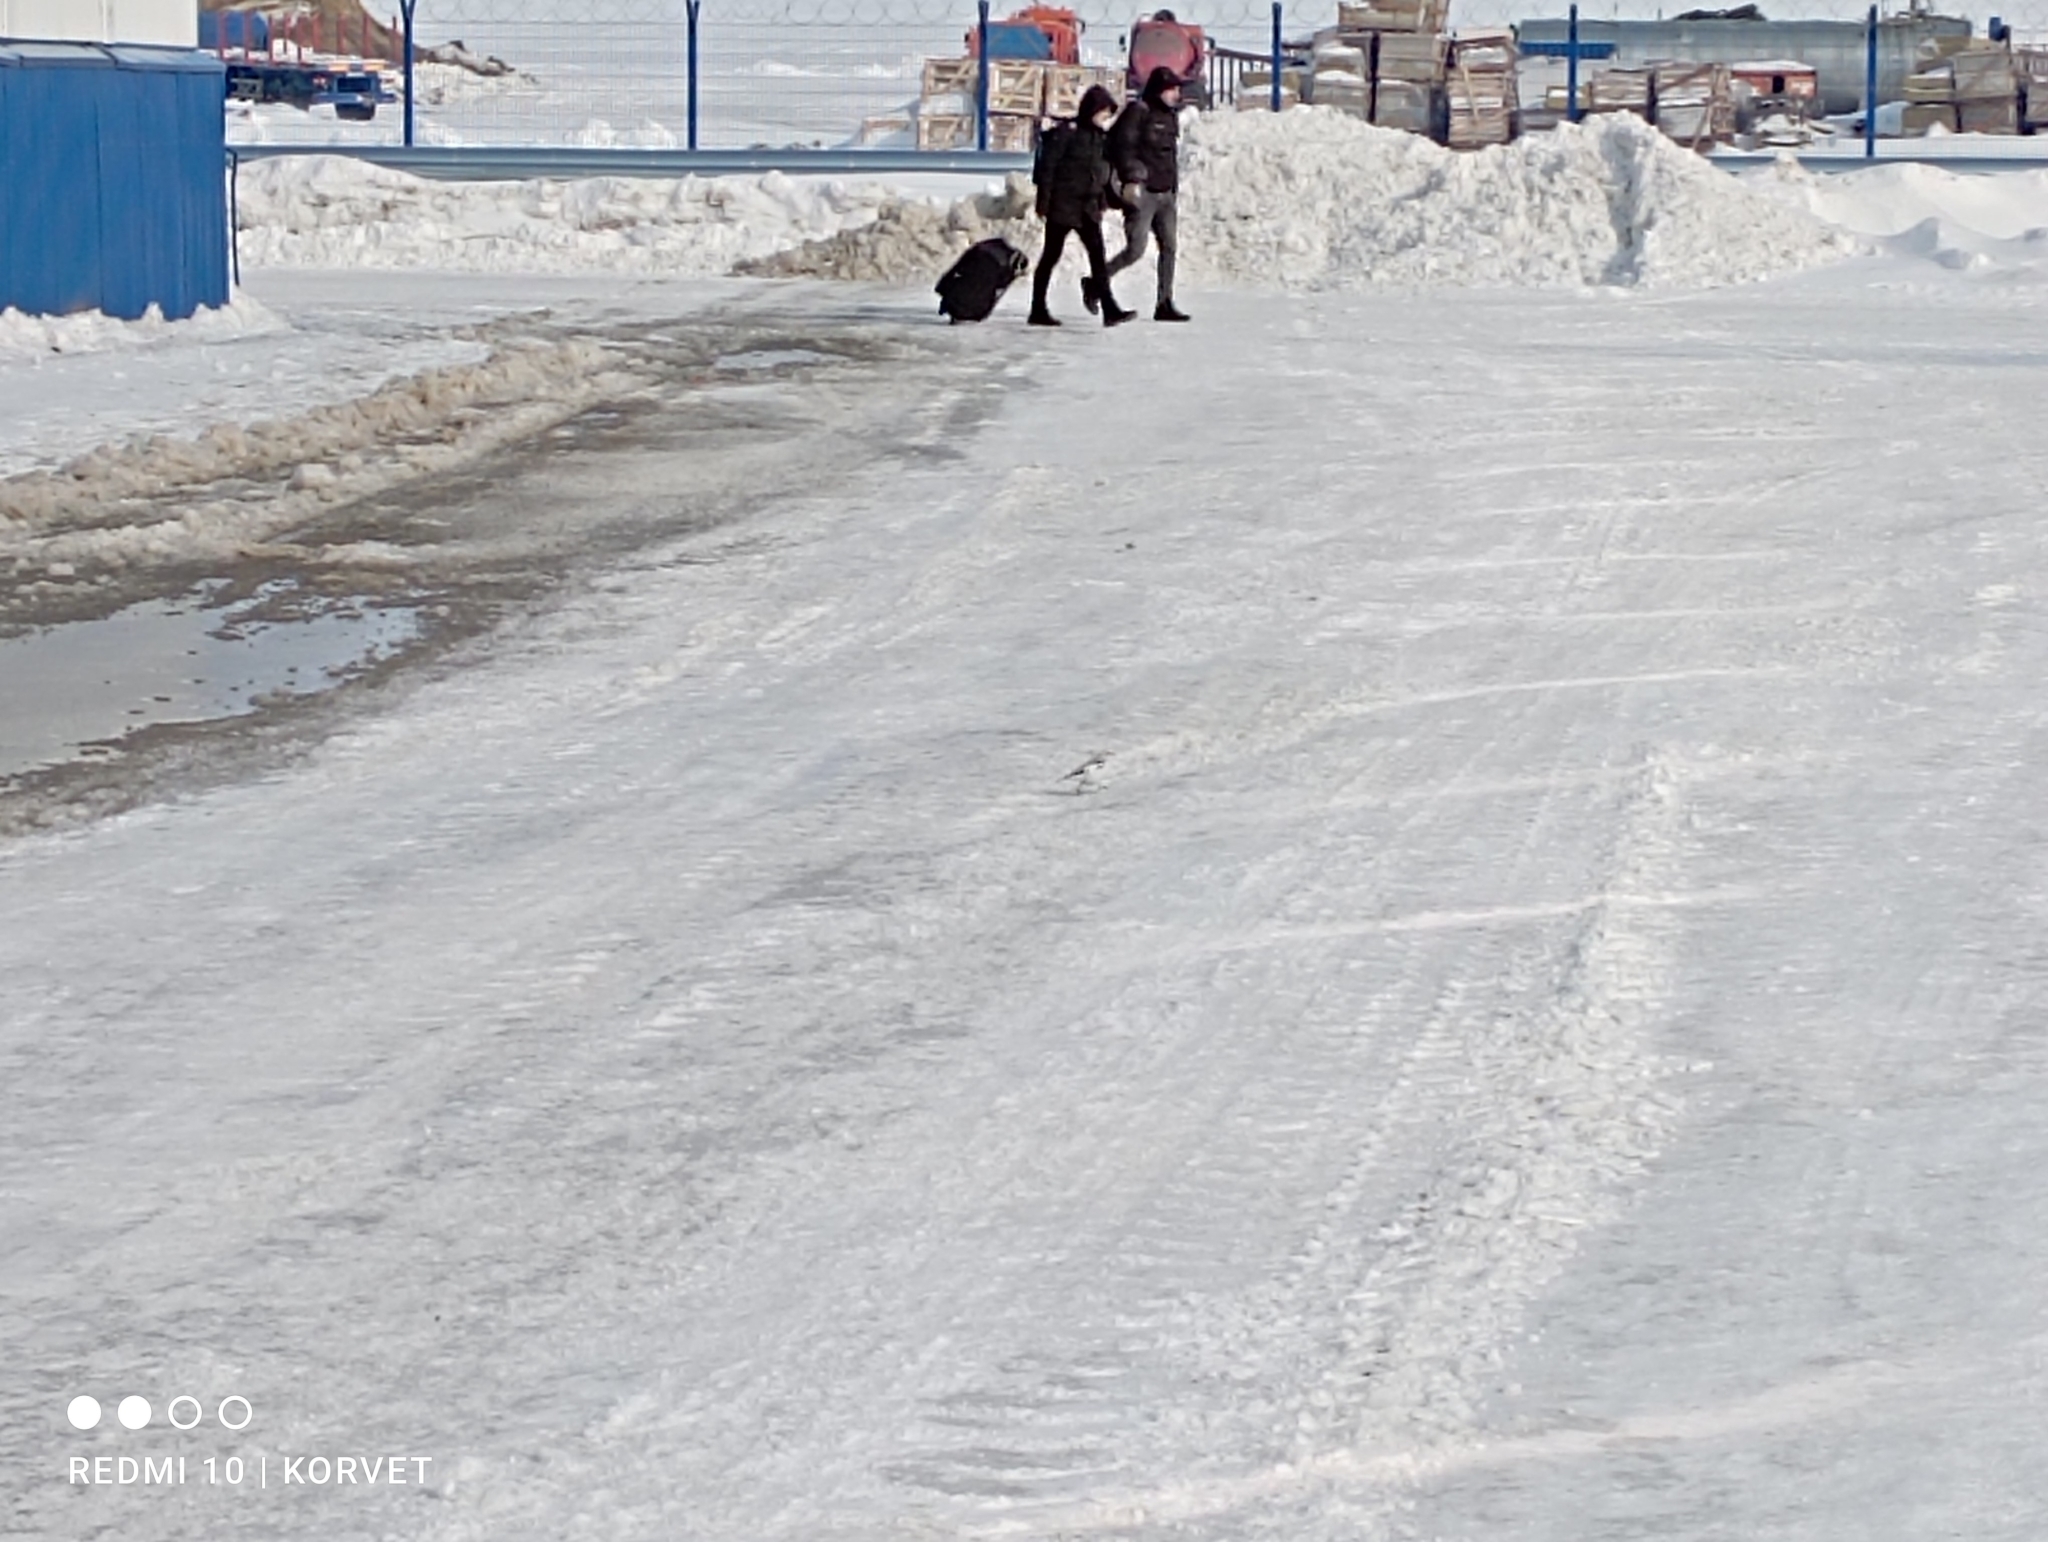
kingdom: Animalia
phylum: Chordata
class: Aves
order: Passeriformes
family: Calcariidae
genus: Plectrophenax
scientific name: Plectrophenax nivalis
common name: Snow bunting
